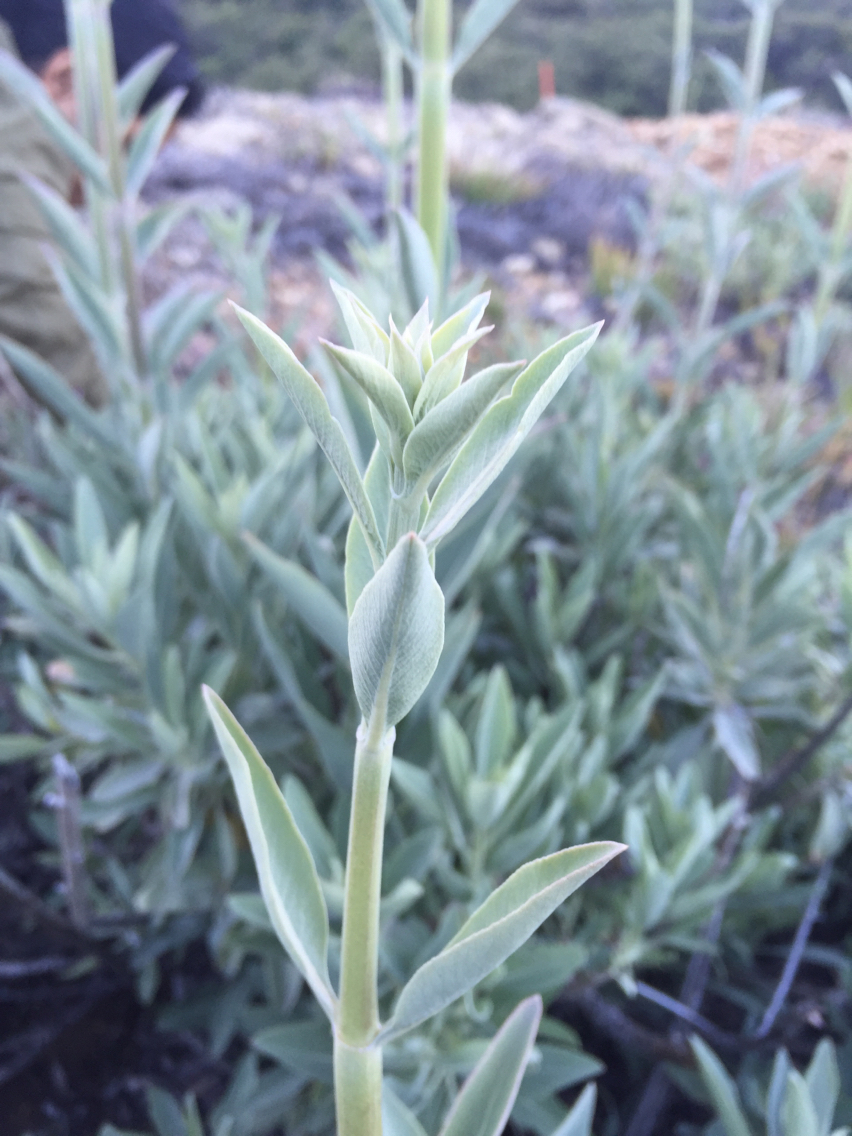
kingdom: Plantae
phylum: Tracheophyta
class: Magnoliopsida
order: Lamiales
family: Lamiaceae
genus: Salvia
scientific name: Salvia apiana
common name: White sage
